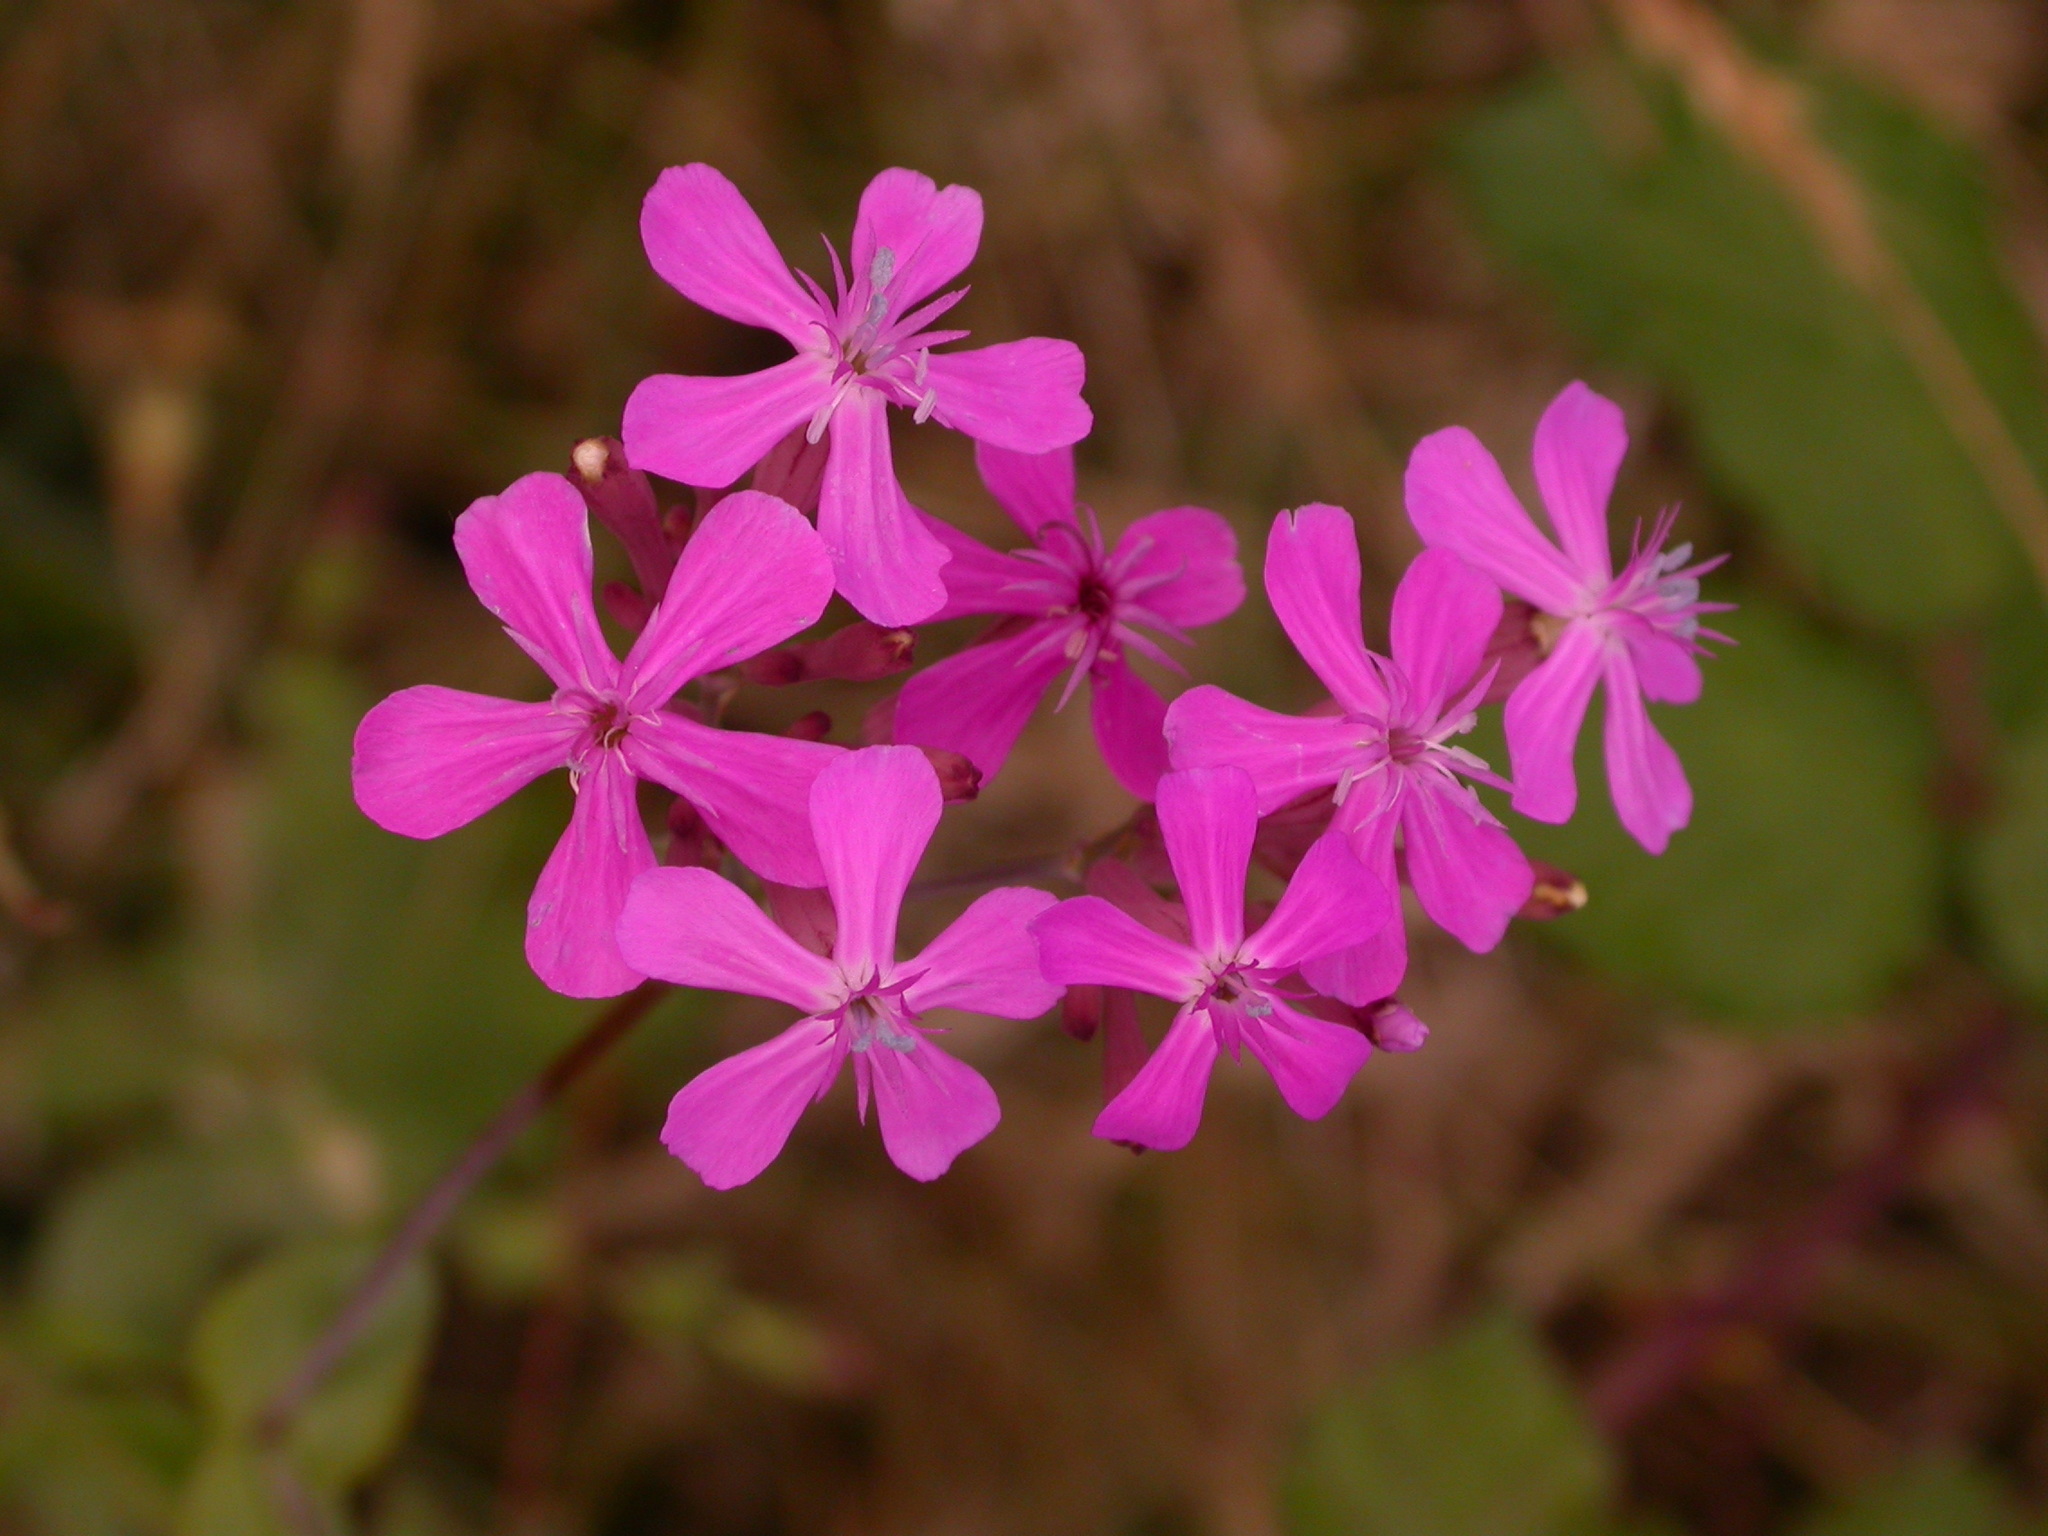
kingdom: Plantae
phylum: Tracheophyta
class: Magnoliopsida
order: Caryophyllales
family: Caryophyllaceae
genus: Atocion
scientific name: Atocion armeria
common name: Sweet william catchfly
